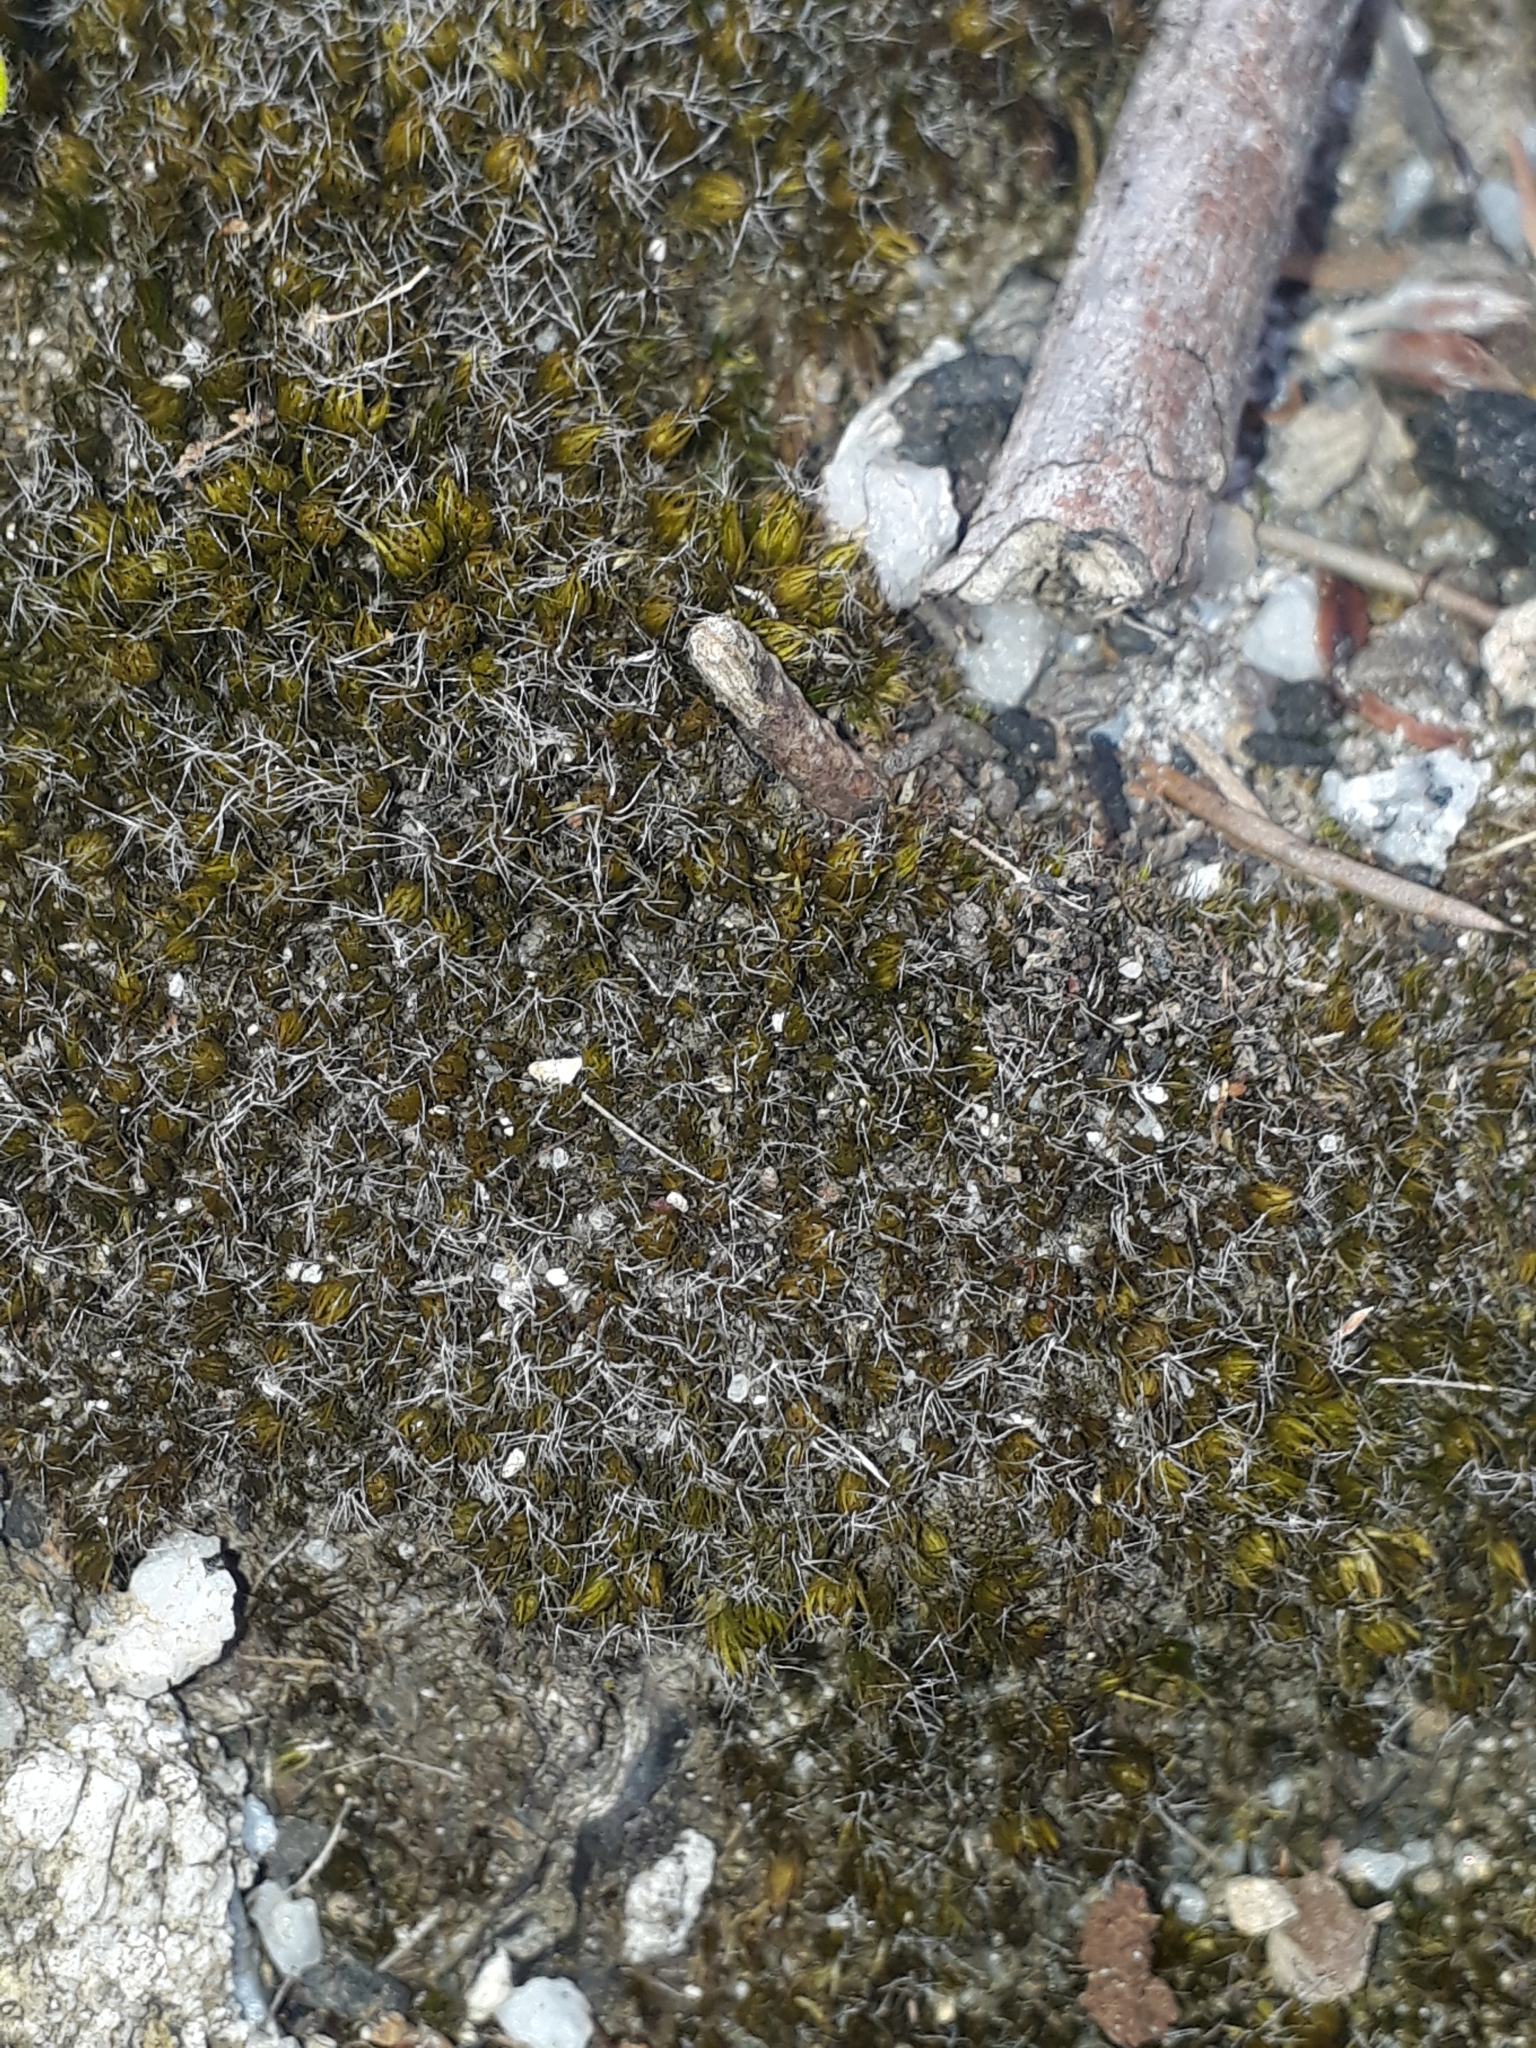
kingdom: Plantae
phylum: Bryophyta
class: Bryopsida
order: Dicranales
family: Leucobryaceae
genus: Campylopus
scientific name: Campylopus introflexus
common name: Heath star moss
